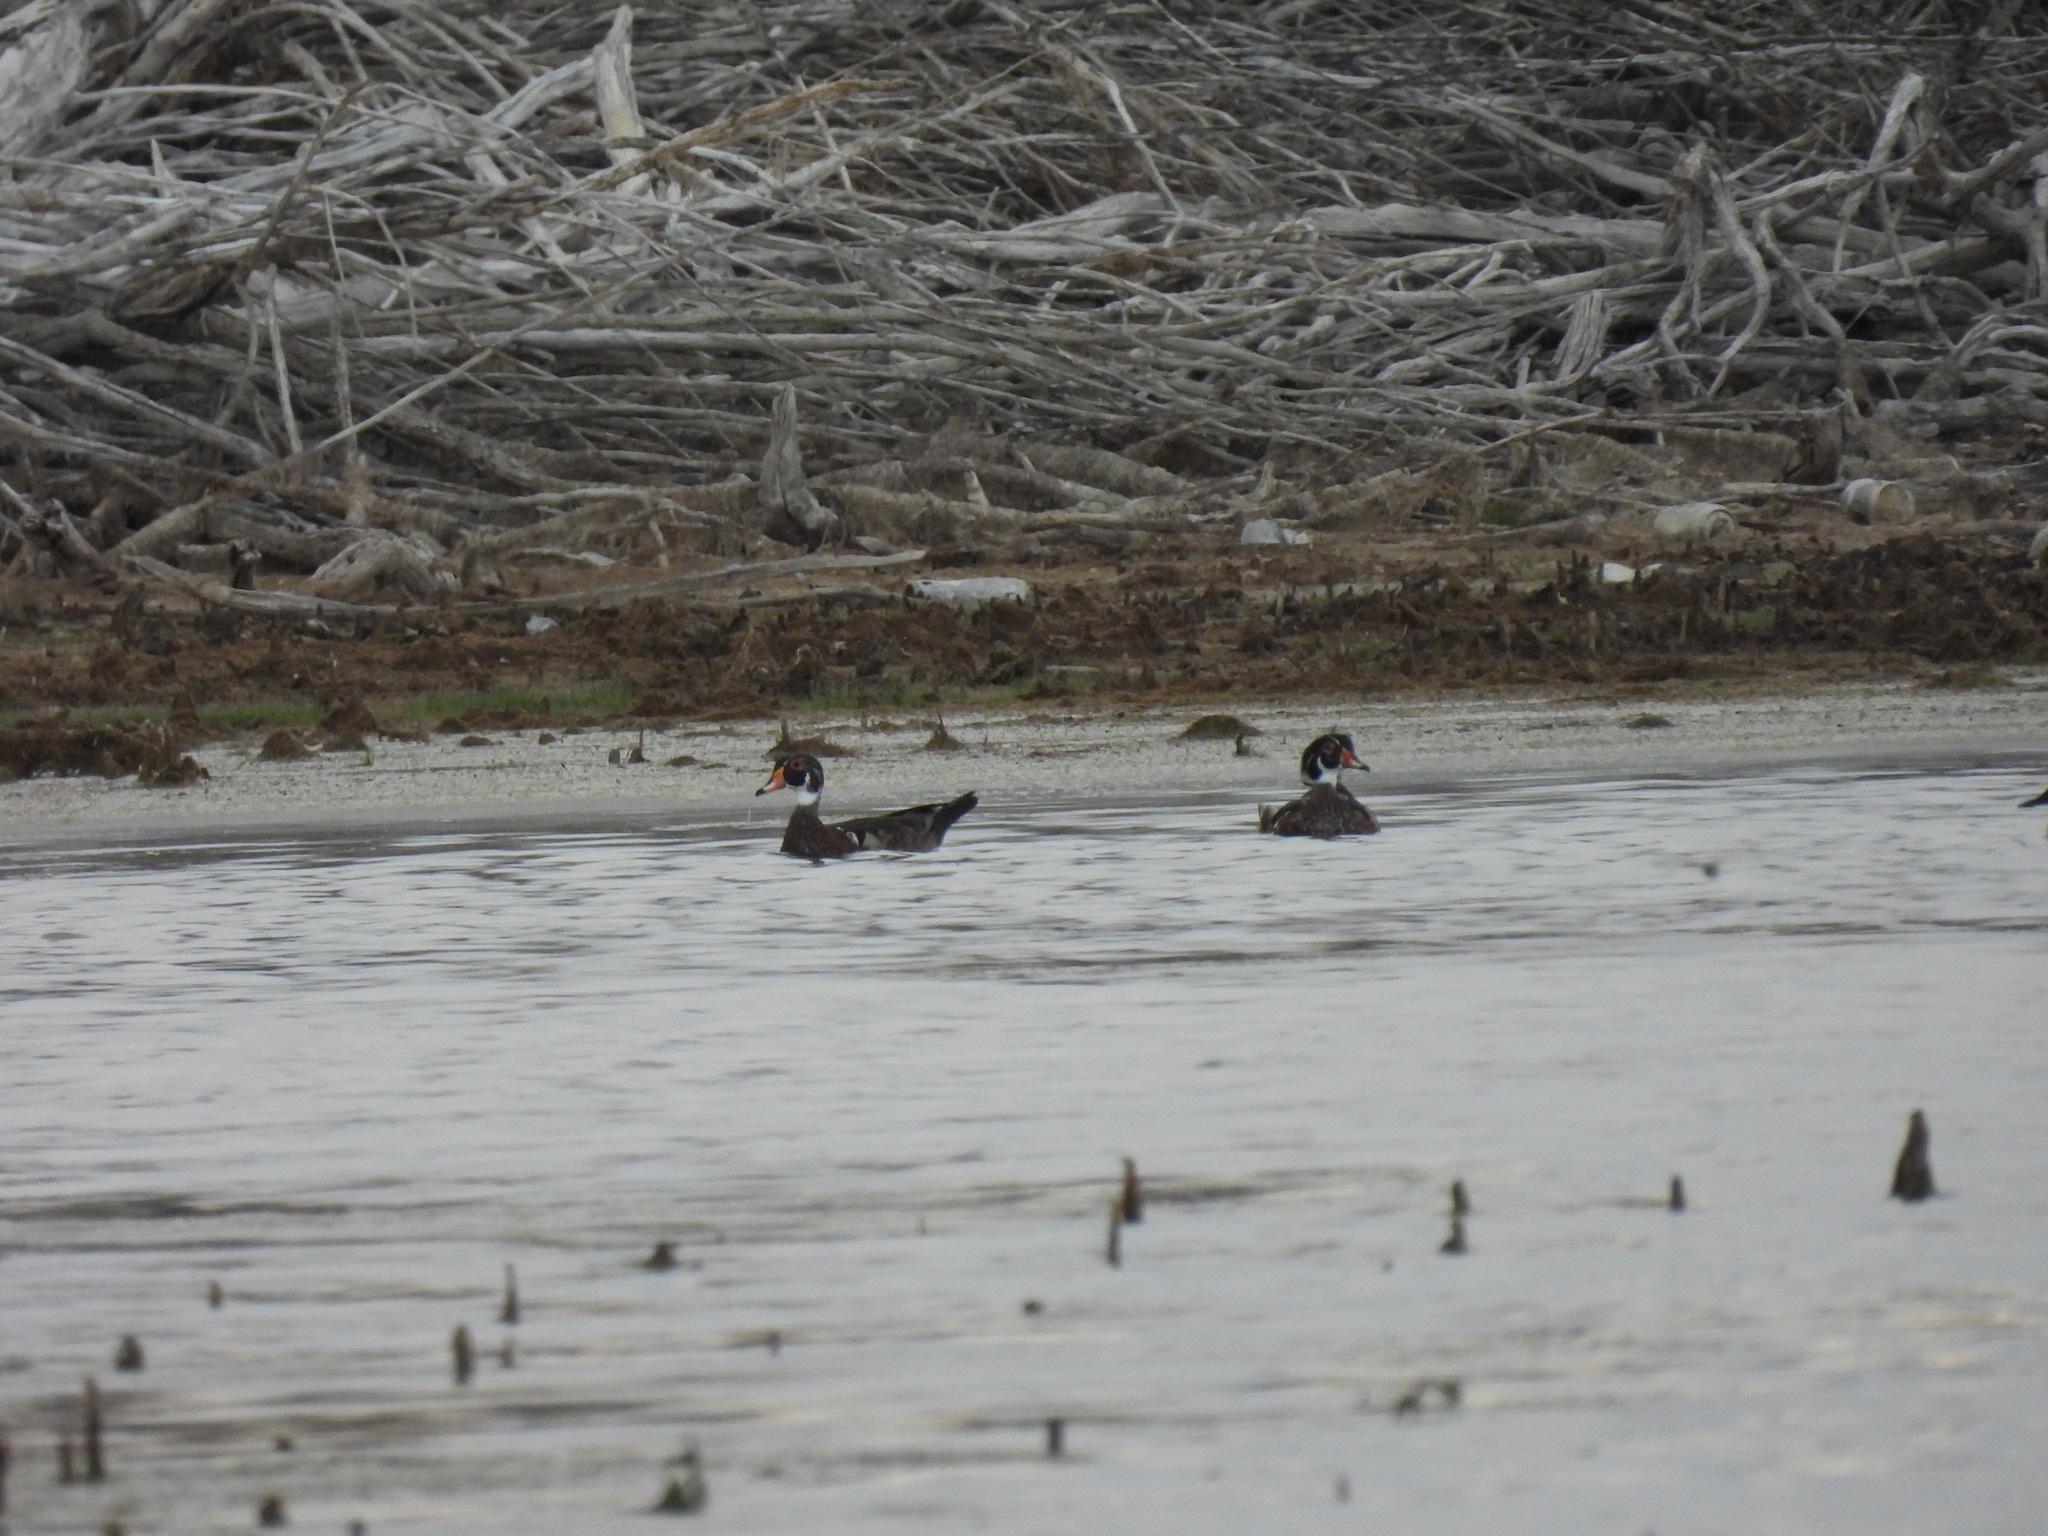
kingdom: Animalia
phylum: Chordata
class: Aves
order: Anseriformes
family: Anatidae
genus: Aix
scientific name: Aix sponsa
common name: Wood duck
